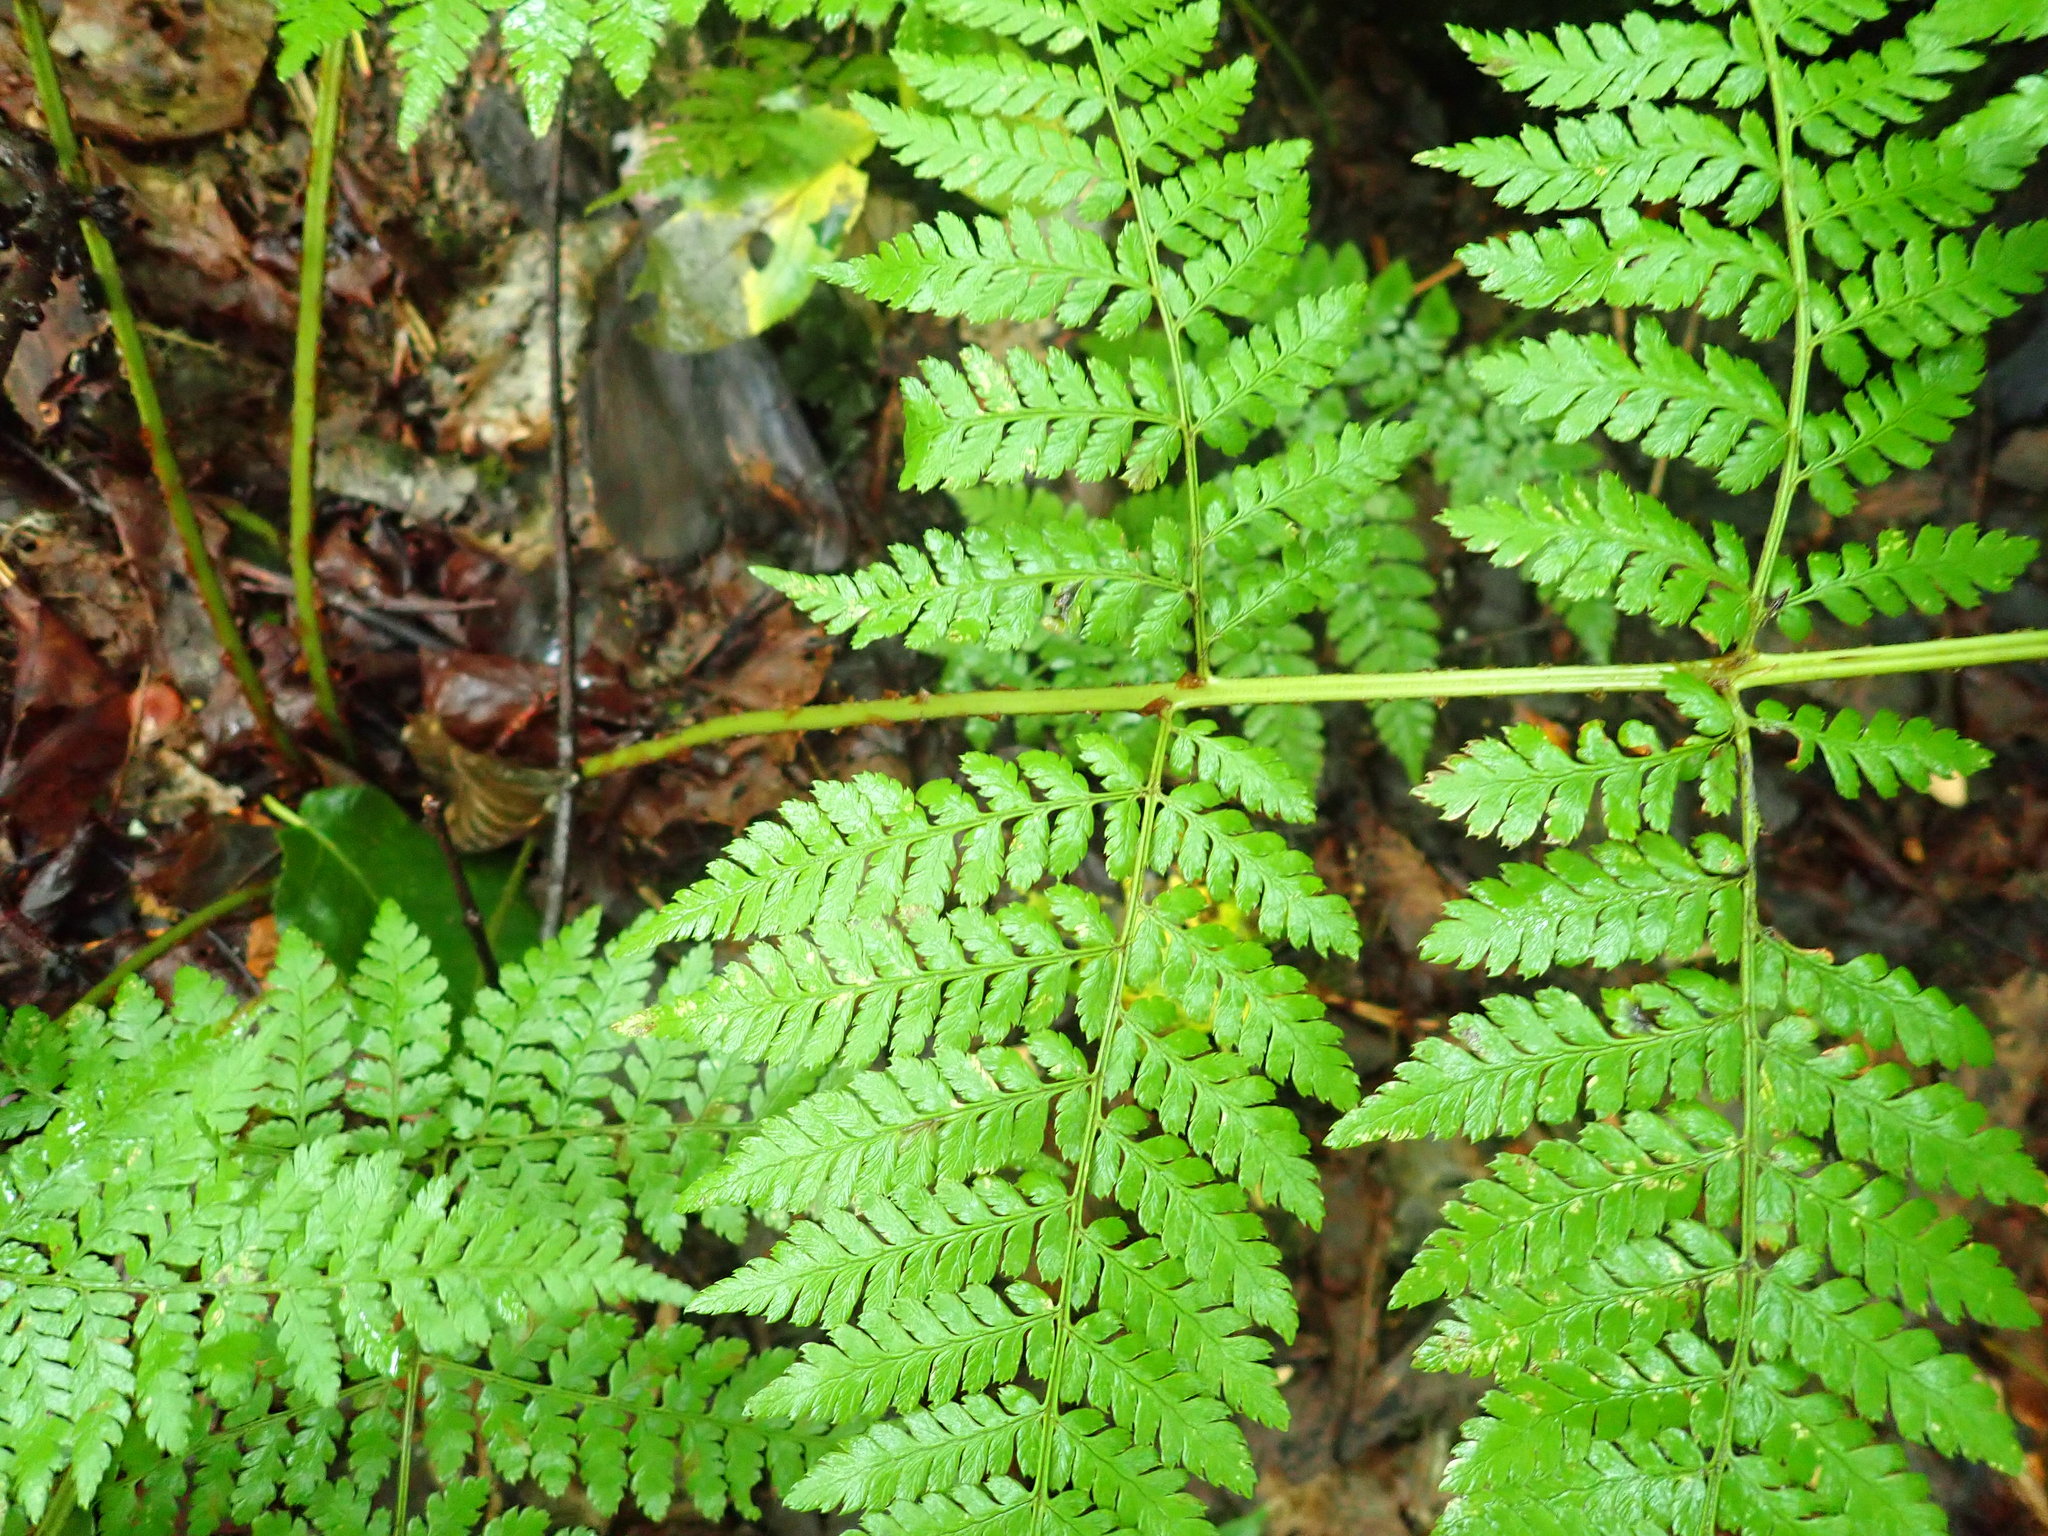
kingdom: Plantae
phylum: Tracheophyta
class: Polypodiopsida
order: Polypodiales
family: Dryopteridaceae
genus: Dryopteris
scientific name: Dryopteris campyloptera
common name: Mountain wood fern
